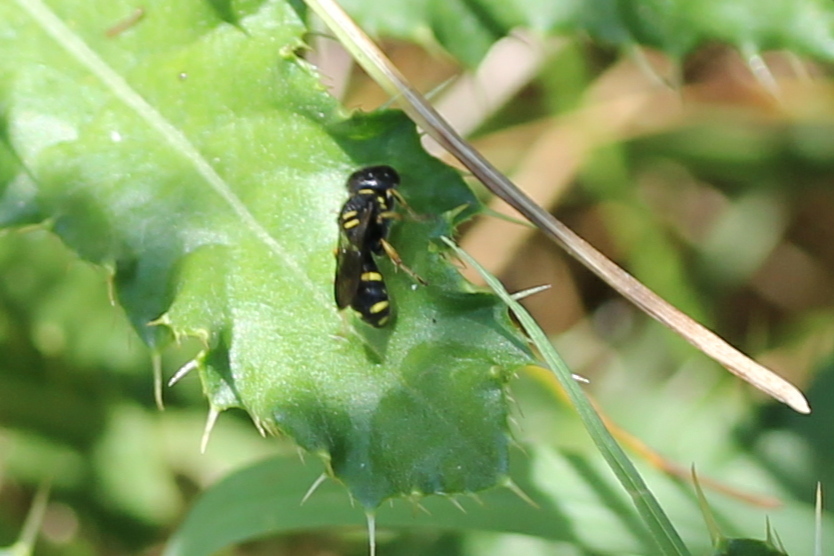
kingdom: Animalia
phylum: Arthropoda
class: Insecta
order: Hymenoptera
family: Crabronidae
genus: Ectemnius
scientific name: Ectemnius stirpicola
